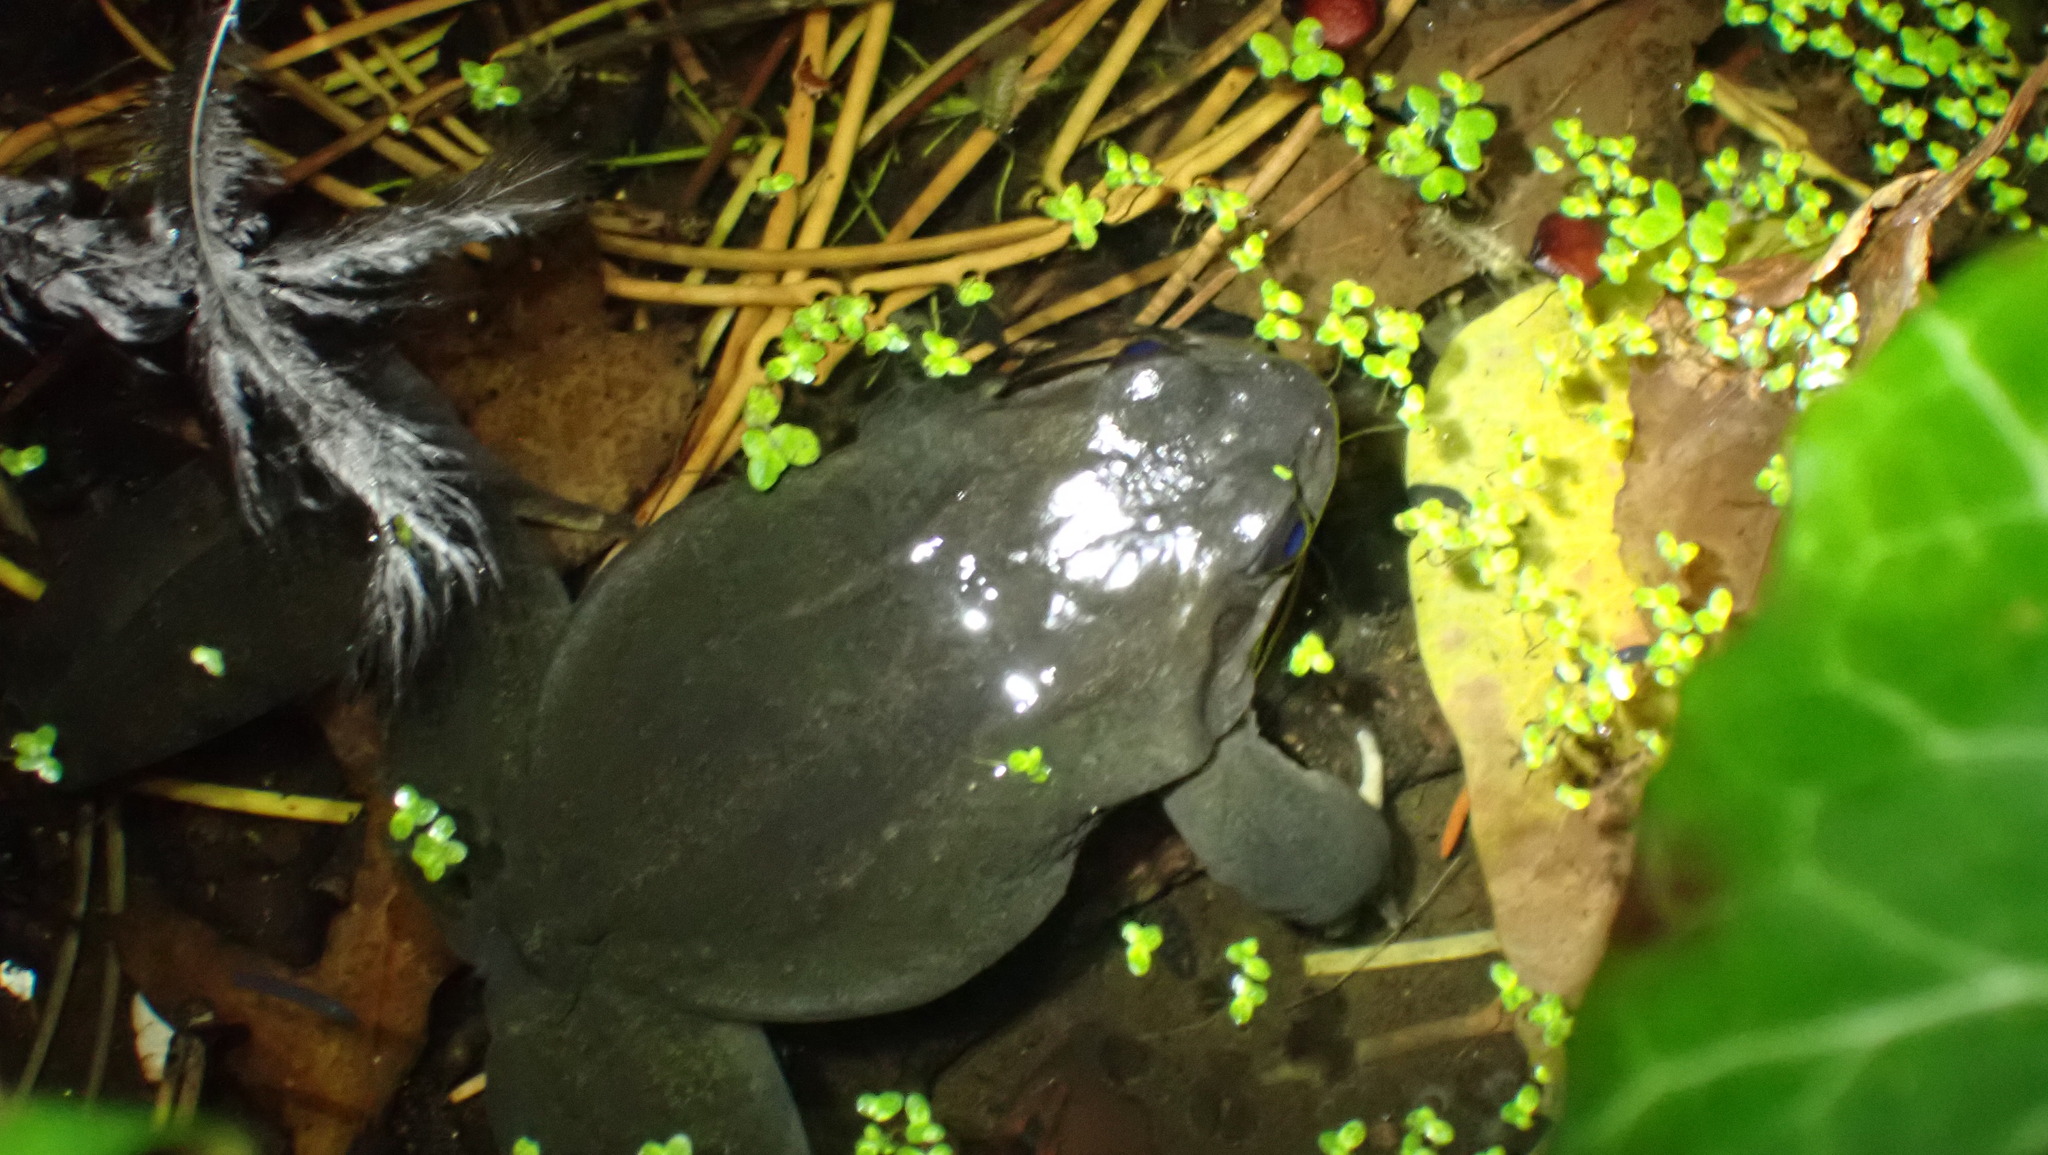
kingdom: Animalia
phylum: Chordata
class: Amphibia
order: Anura
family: Ranidae
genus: Rana
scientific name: Rana temporaria
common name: Common frog
